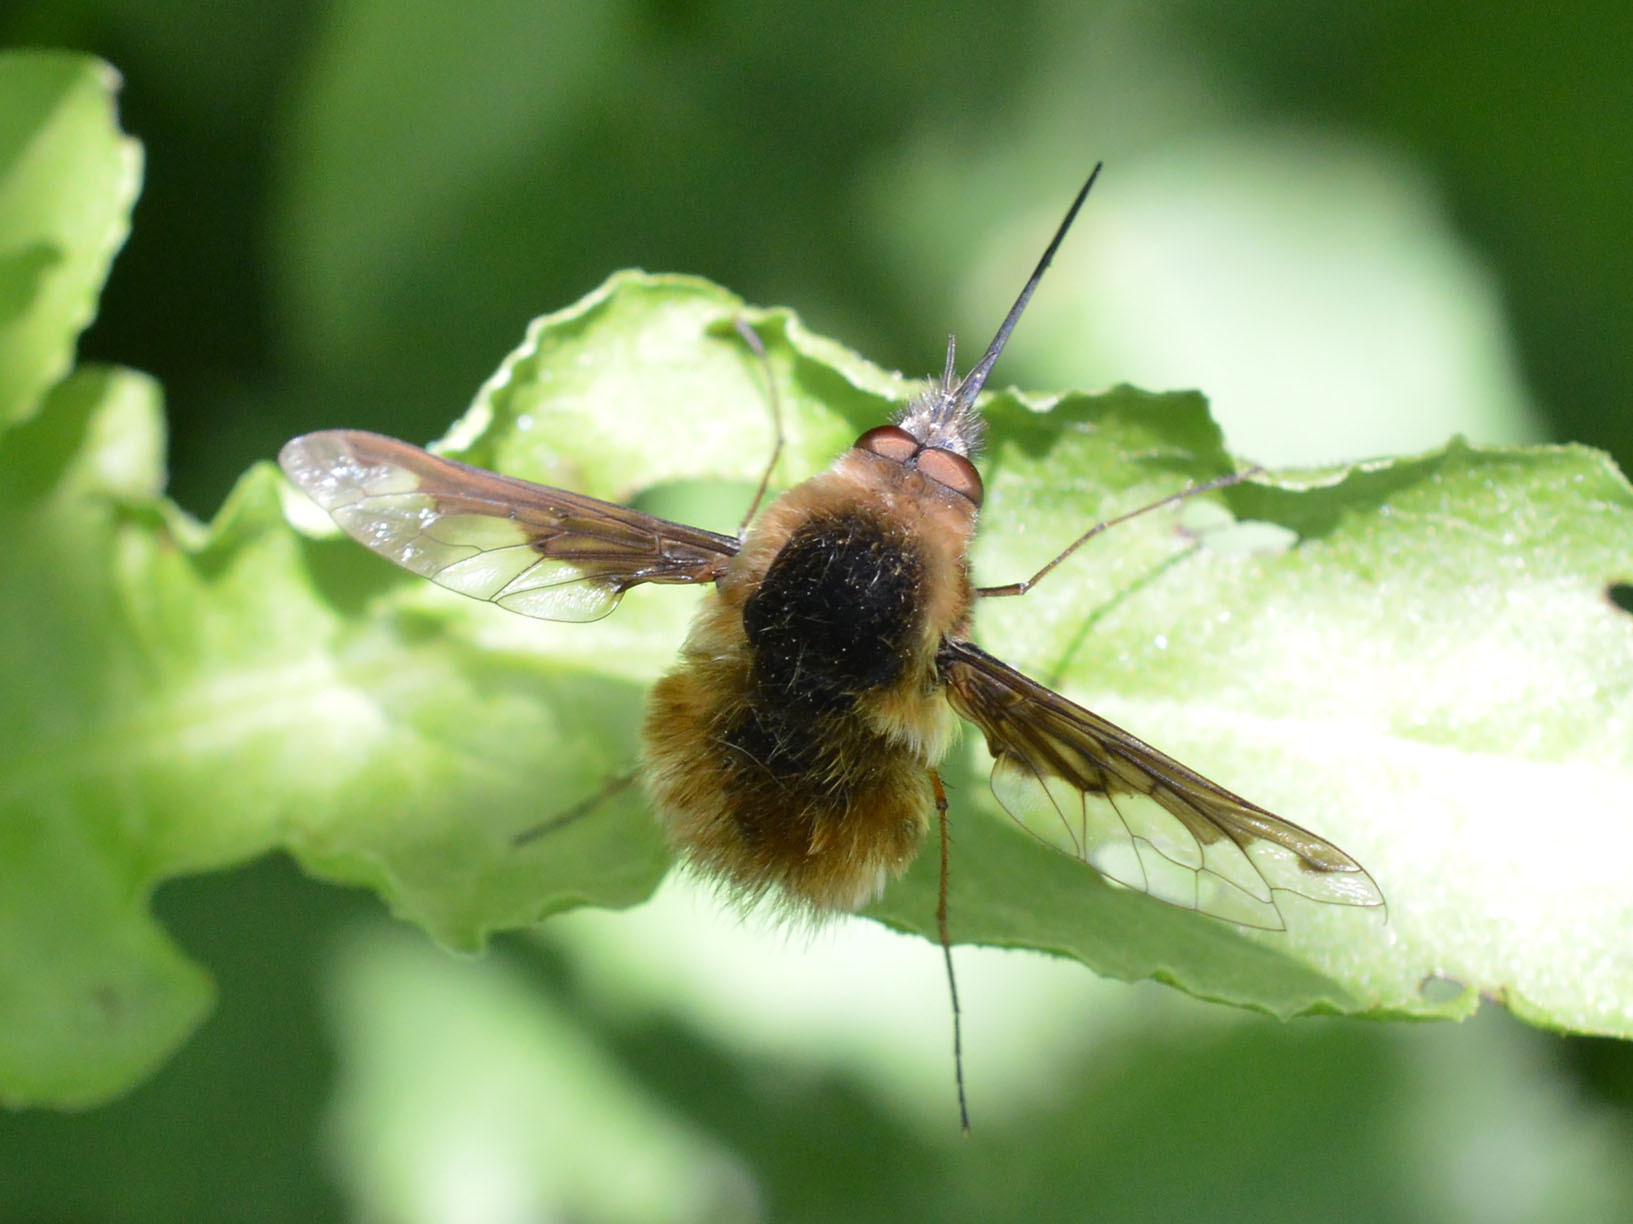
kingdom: Animalia
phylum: Arthropoda
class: Insecta
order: Diptera
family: Bombyliidae
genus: Bombylius
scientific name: Bombylius major
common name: Bee fly
